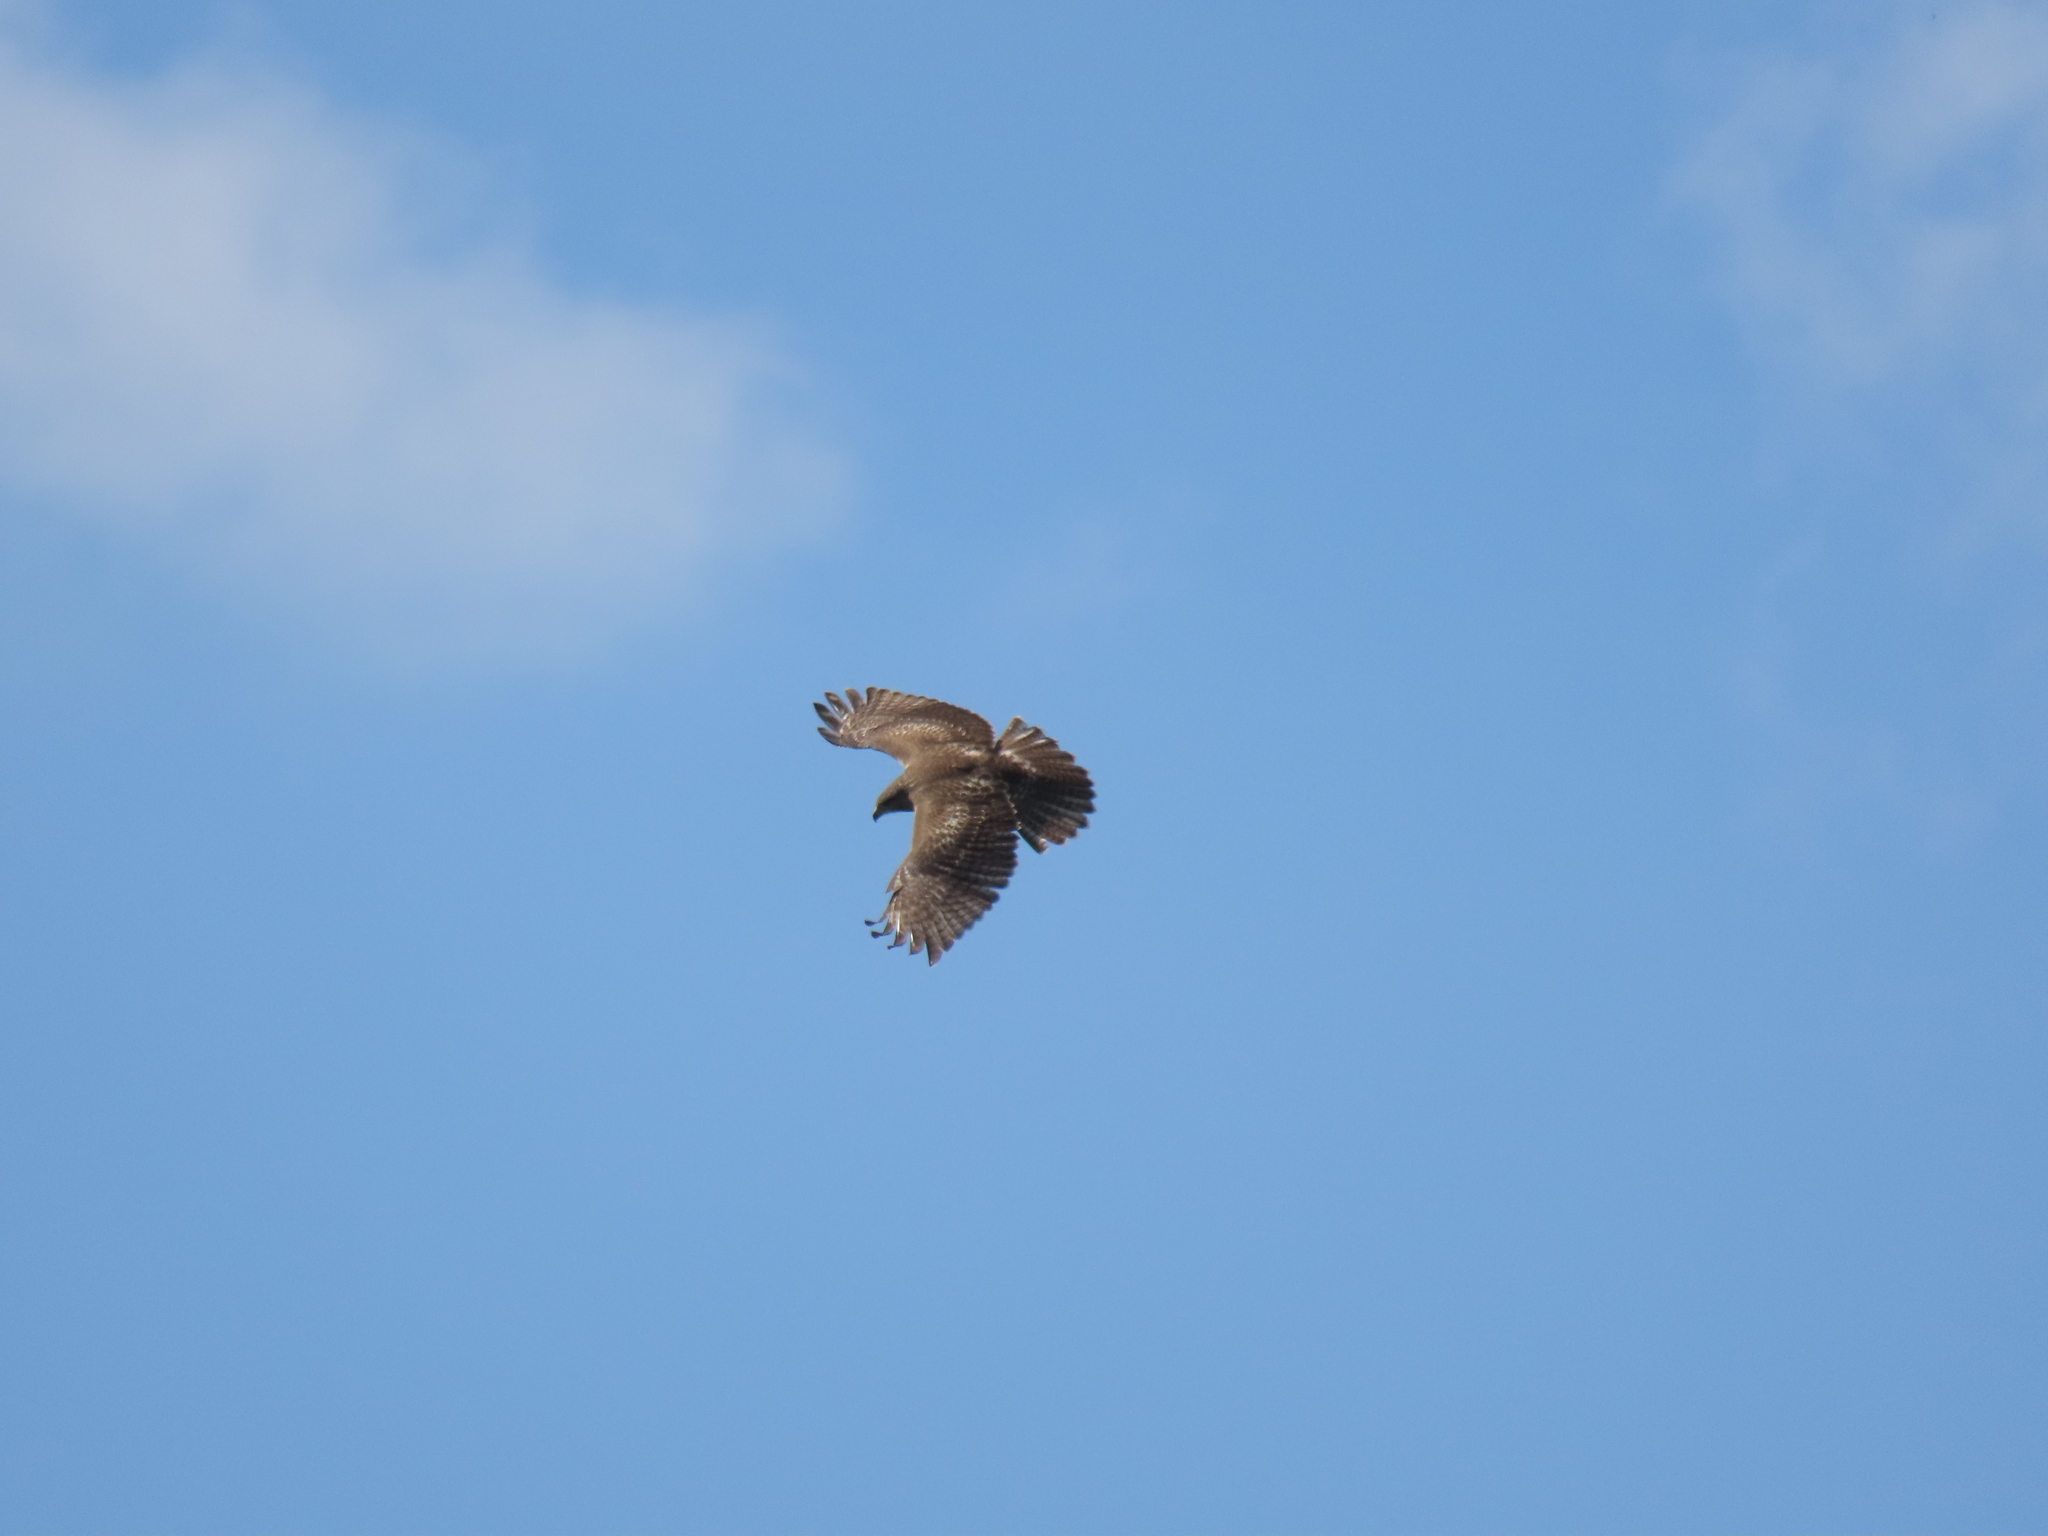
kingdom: Animalia
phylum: Chordata
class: Aves
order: Accipitriformes
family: Accipitridae
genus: Buteo
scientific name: Buteo jamaicensis
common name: Red-tailed hawk
